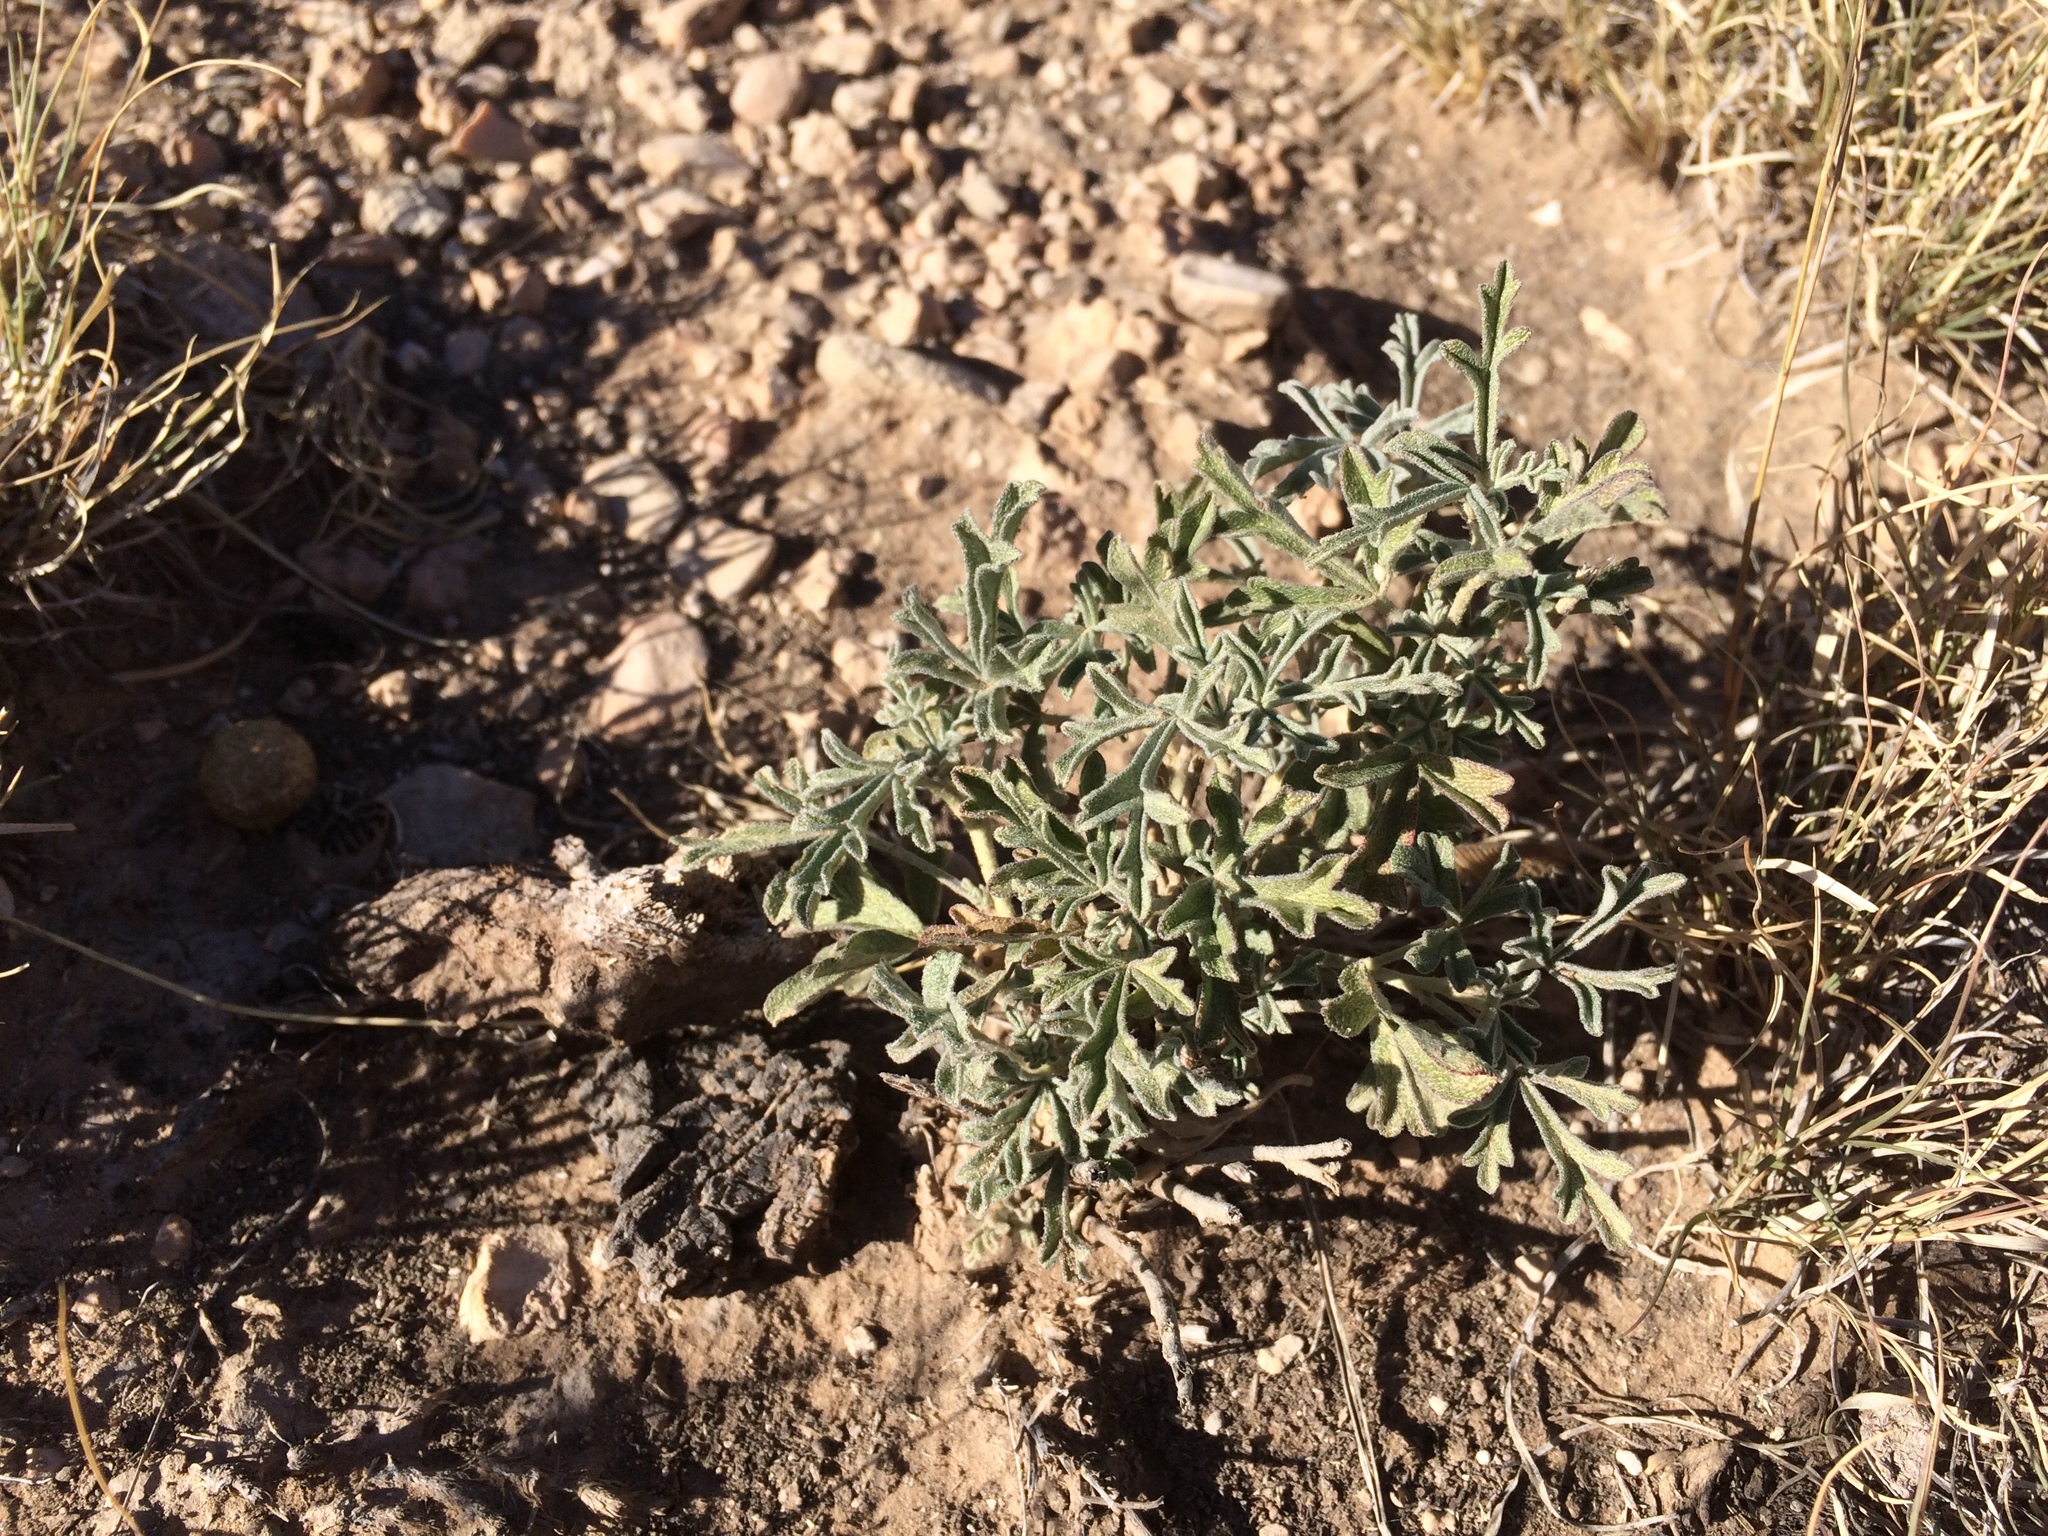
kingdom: Plantae
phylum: Tracheophyta
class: Magnoliopsida
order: Malvales
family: Malvaceae
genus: Sphaeralcea
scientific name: Sphaeralcea coccinea
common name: Moss-rose
